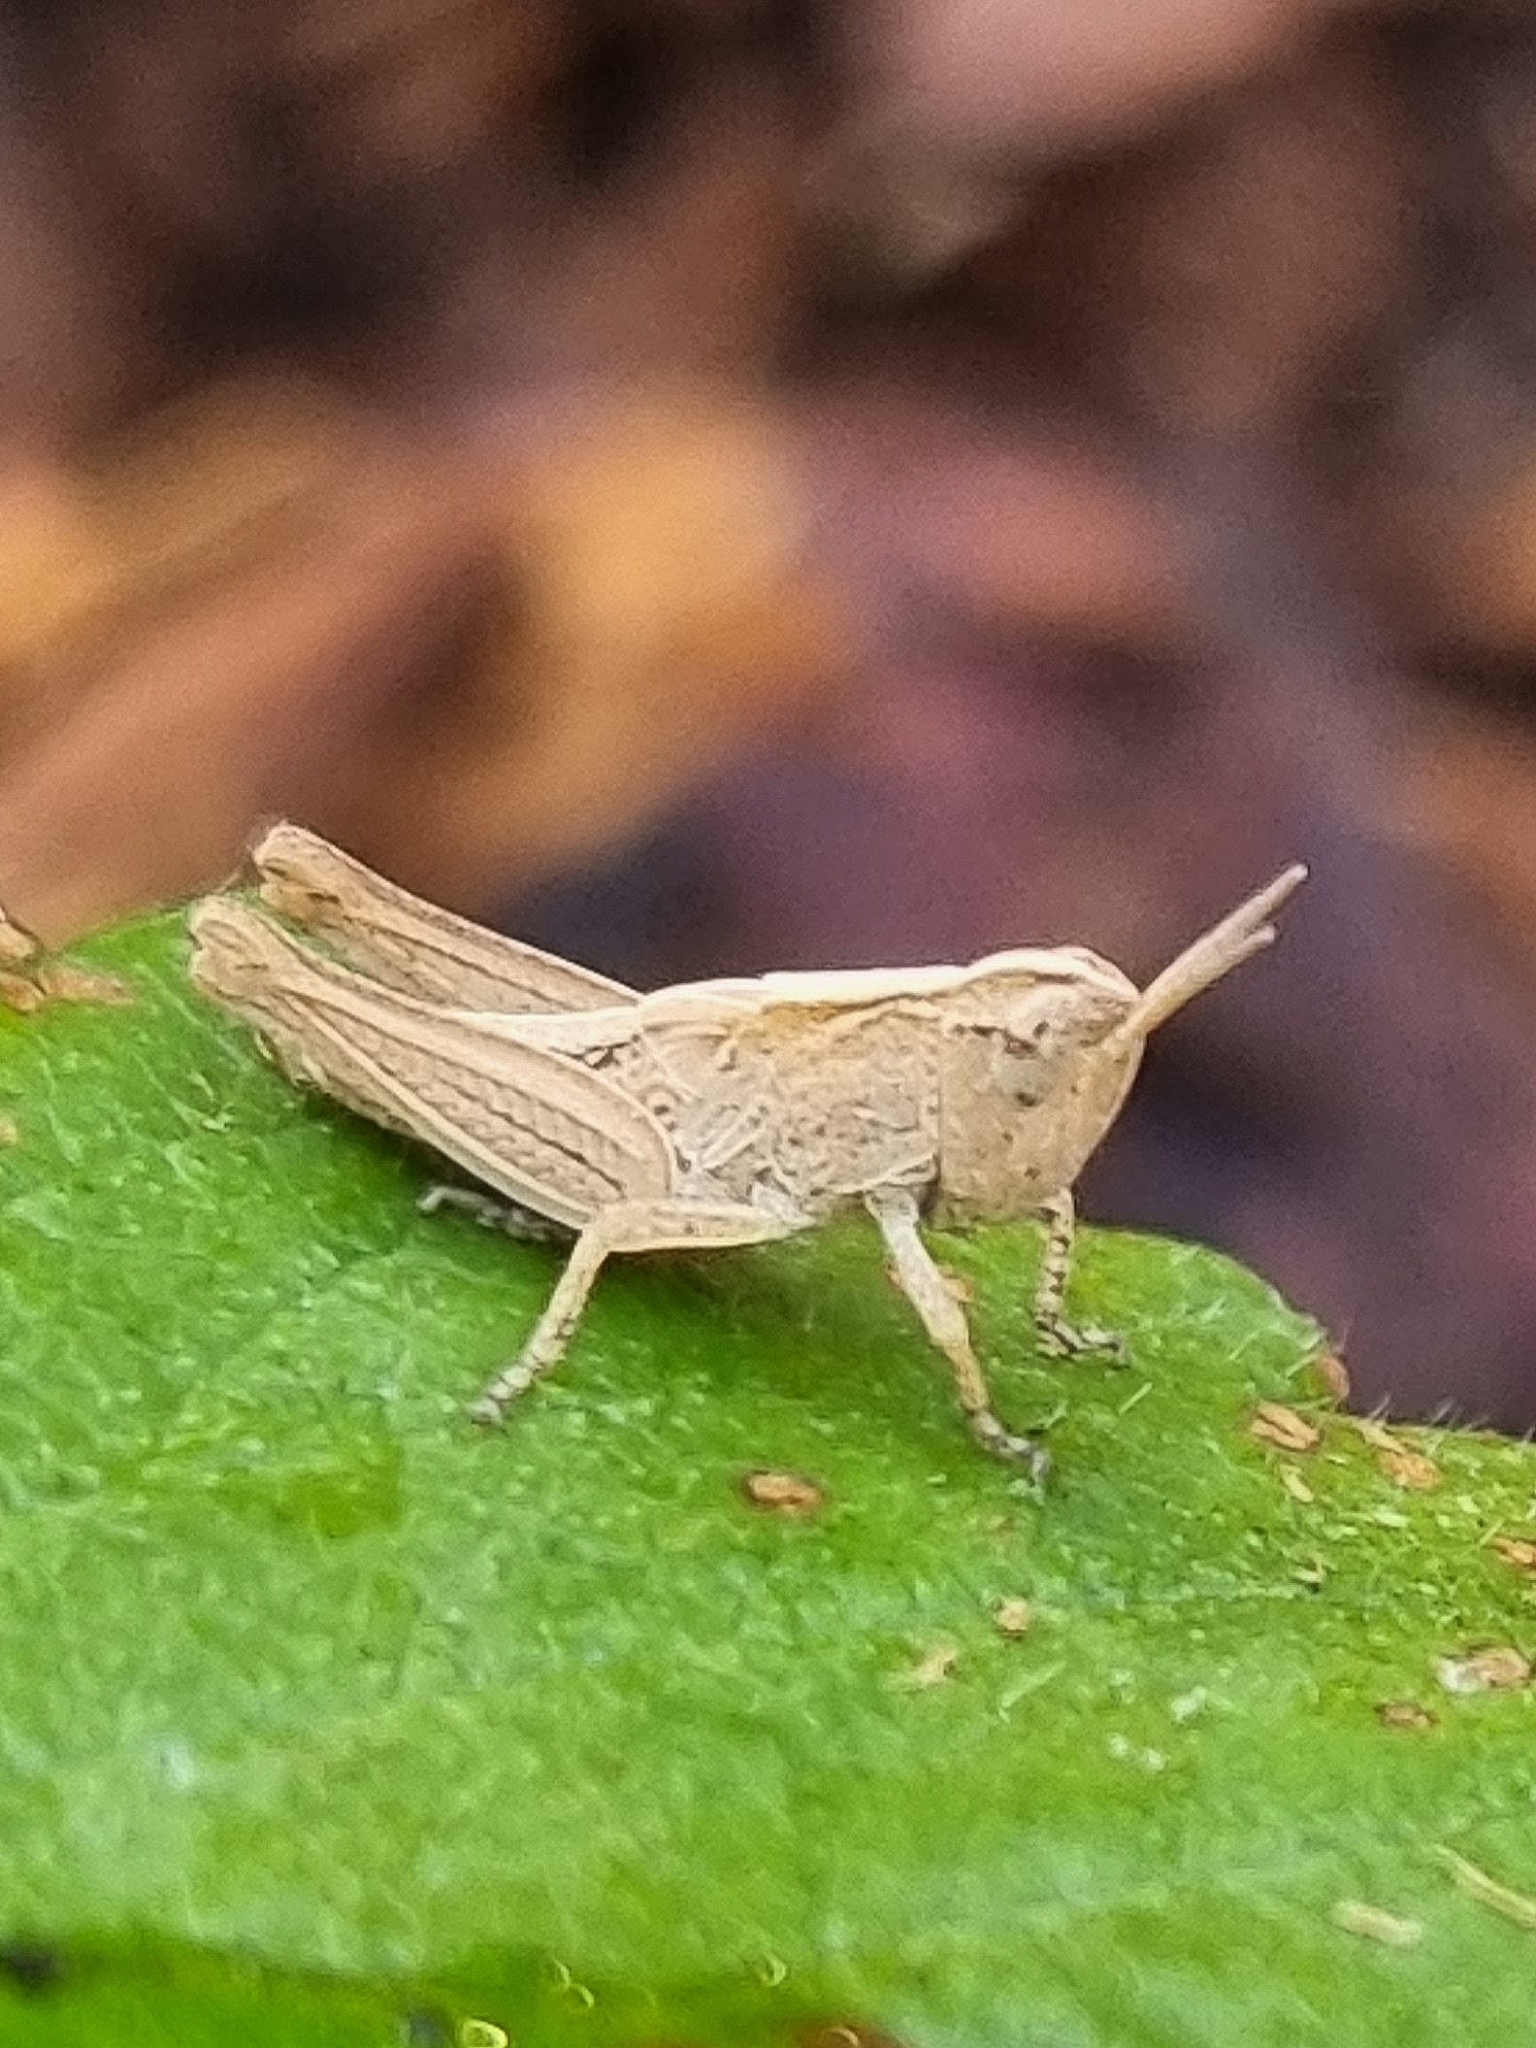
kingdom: Animalia
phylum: Arthropoda
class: Insecta
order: Orthoptera
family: Acrididae
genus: Aiolopus
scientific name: Aiolopus thalassinus
